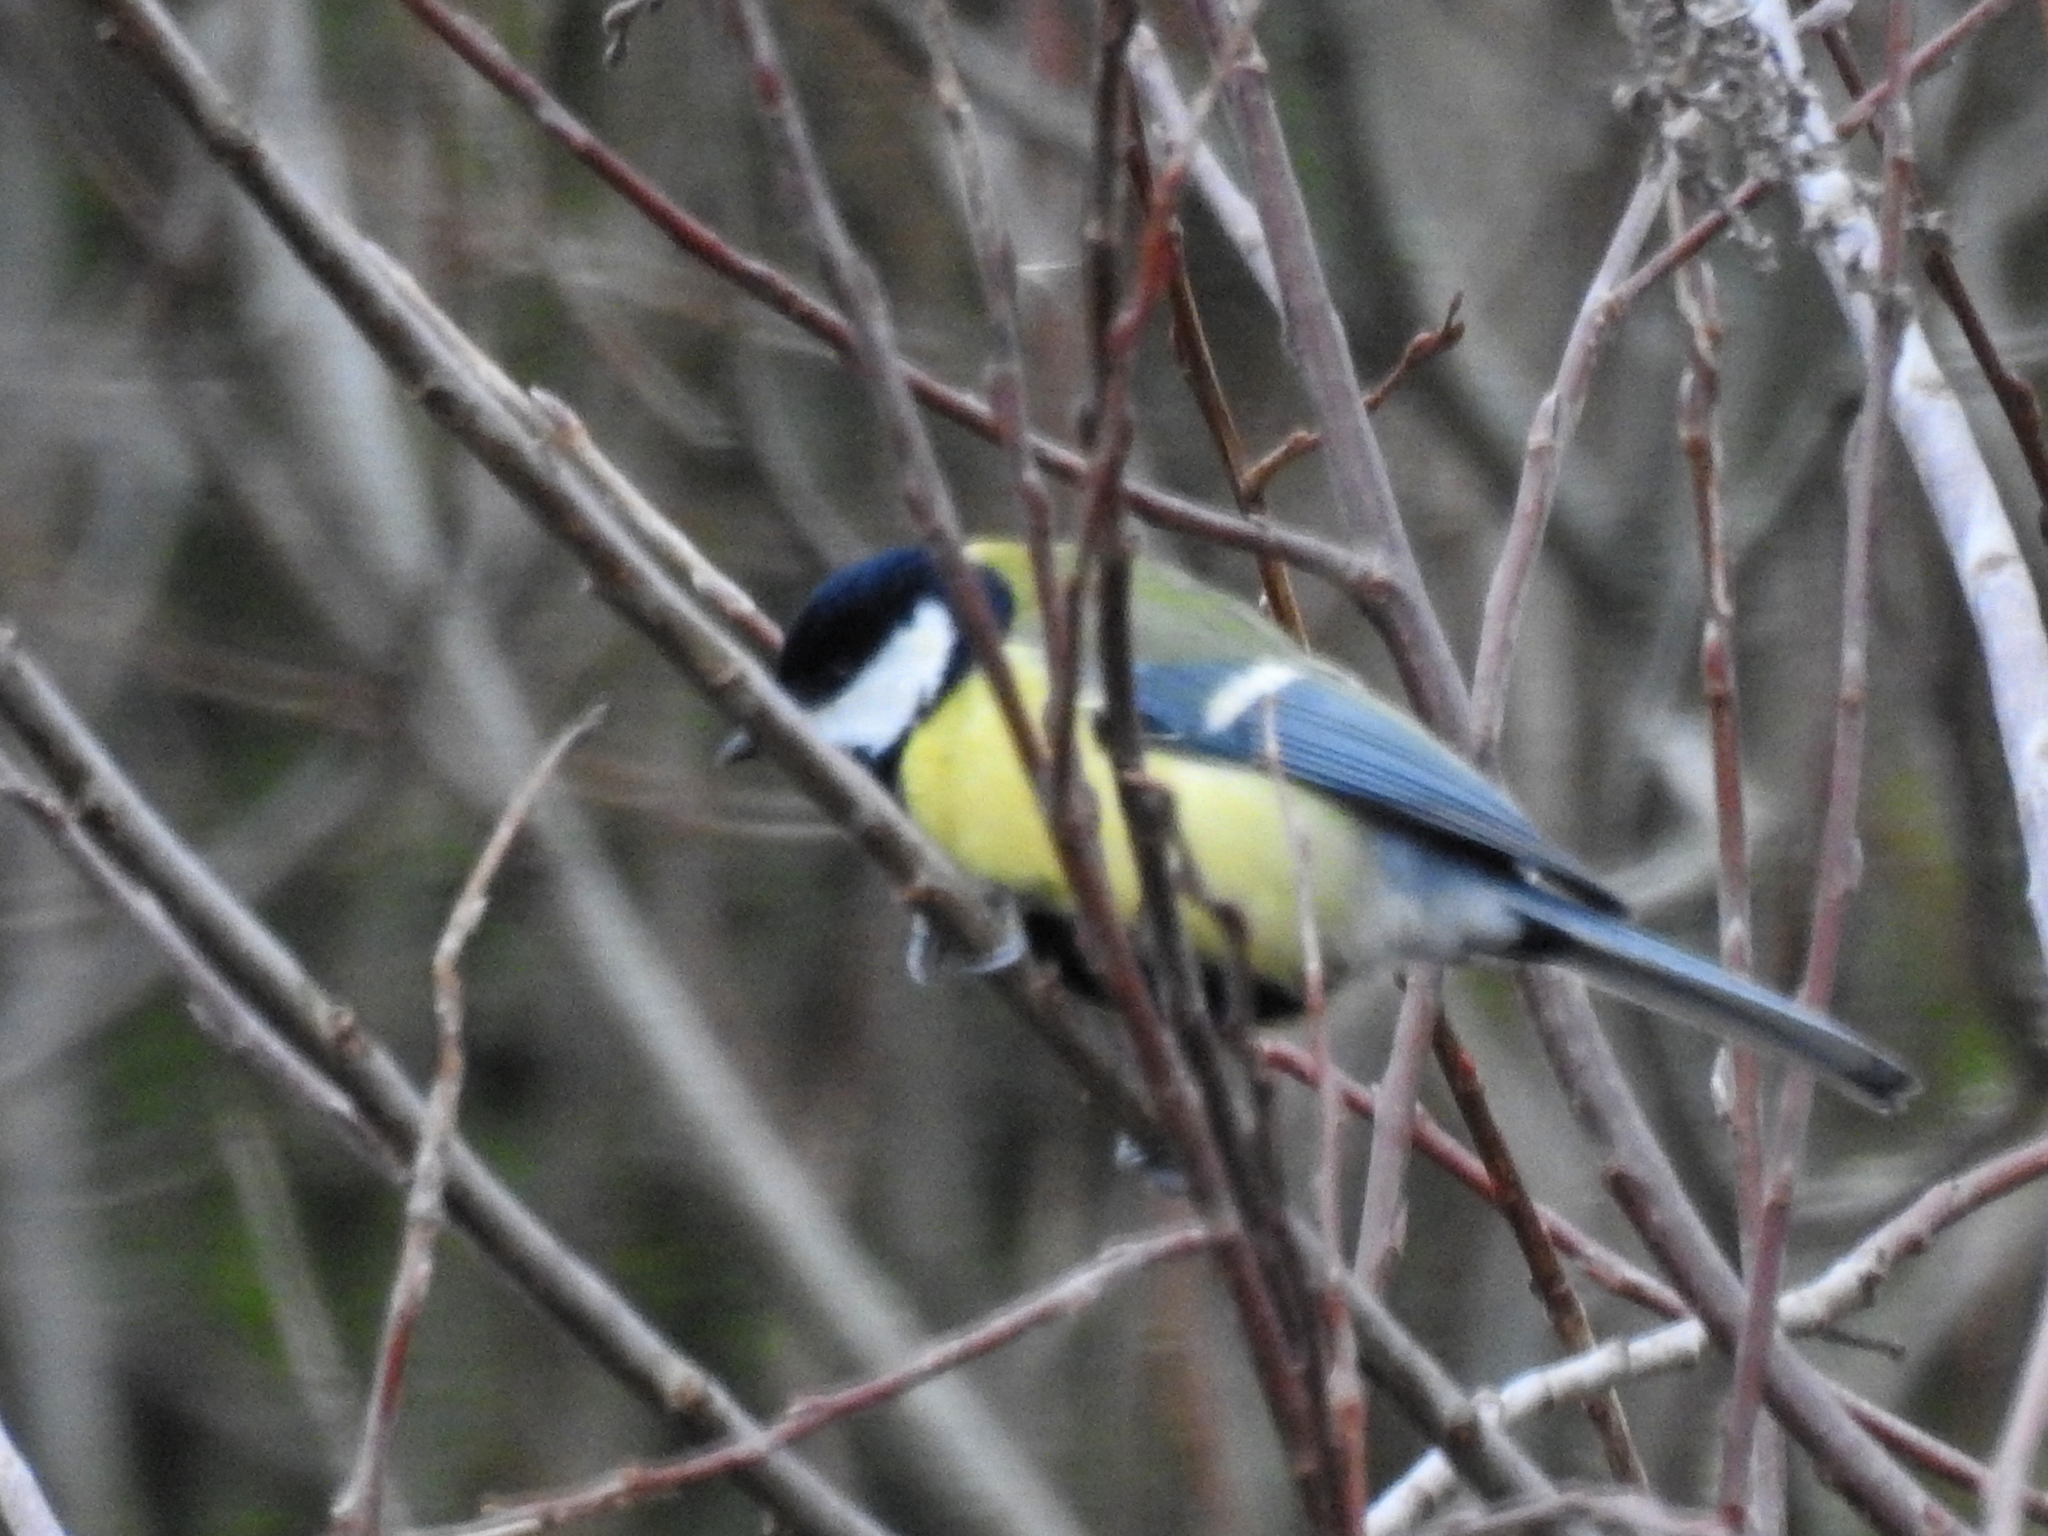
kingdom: Animalia
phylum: Chordata
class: Aves
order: Passeriformes
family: Paridae
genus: Parus
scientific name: Parus major
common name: Great tit
